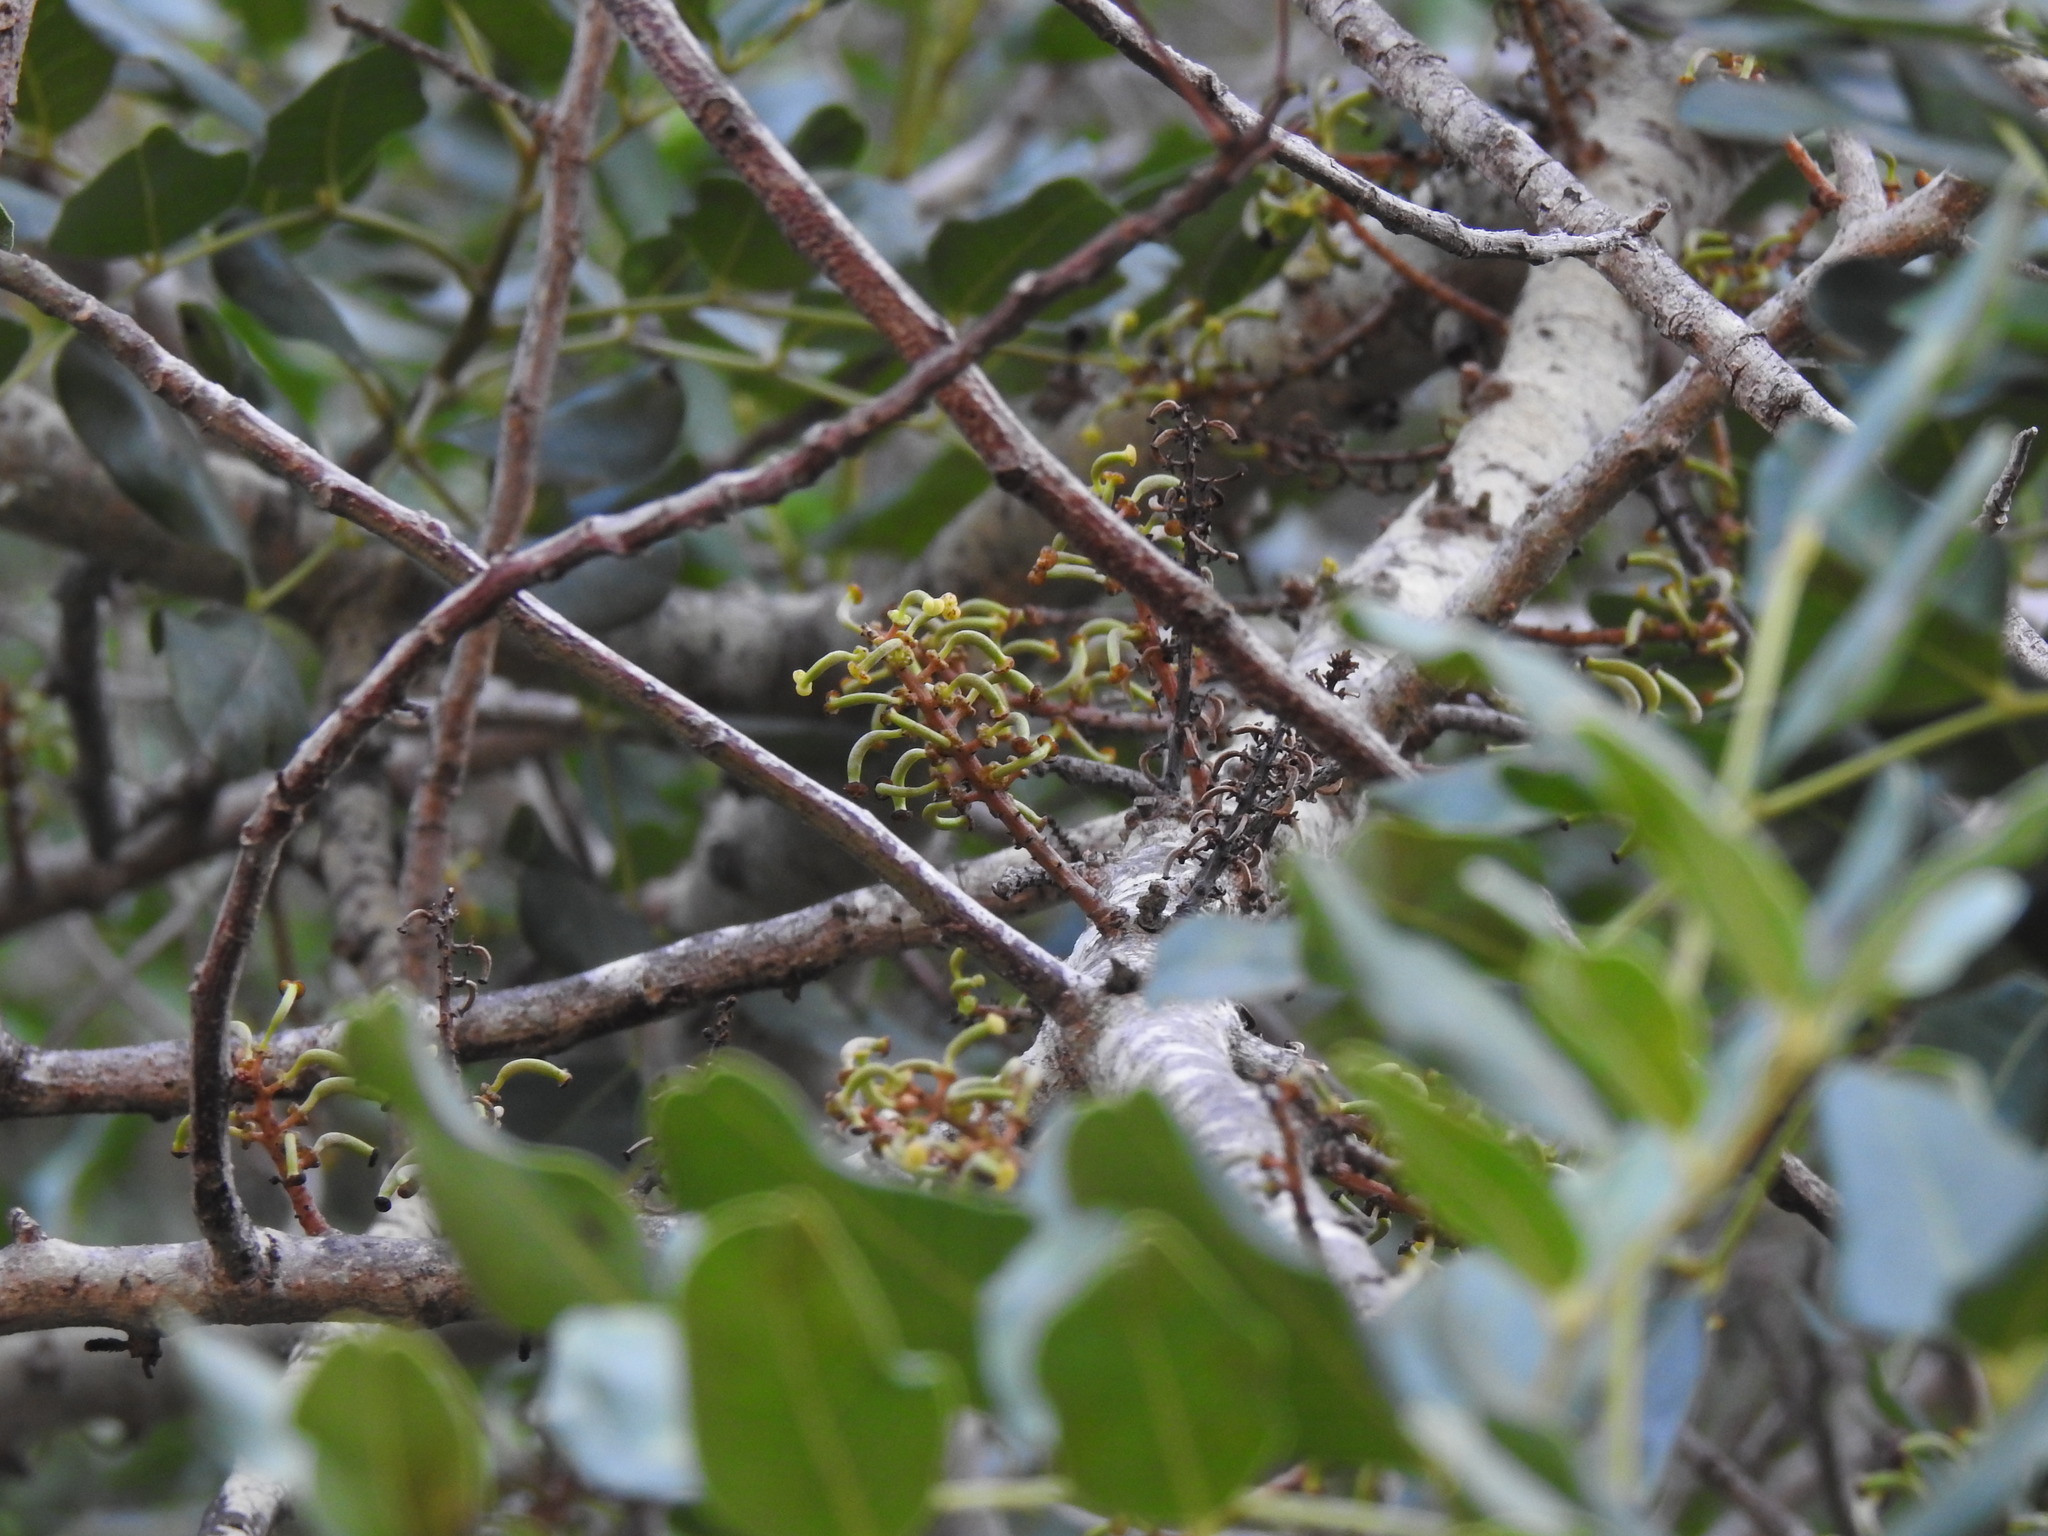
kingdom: Plantae
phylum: Tracheophyta
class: Magnoliopsida
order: Fabales
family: Fabaceae
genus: Ceratonia
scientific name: Ceratonia siliqua
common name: Carob
